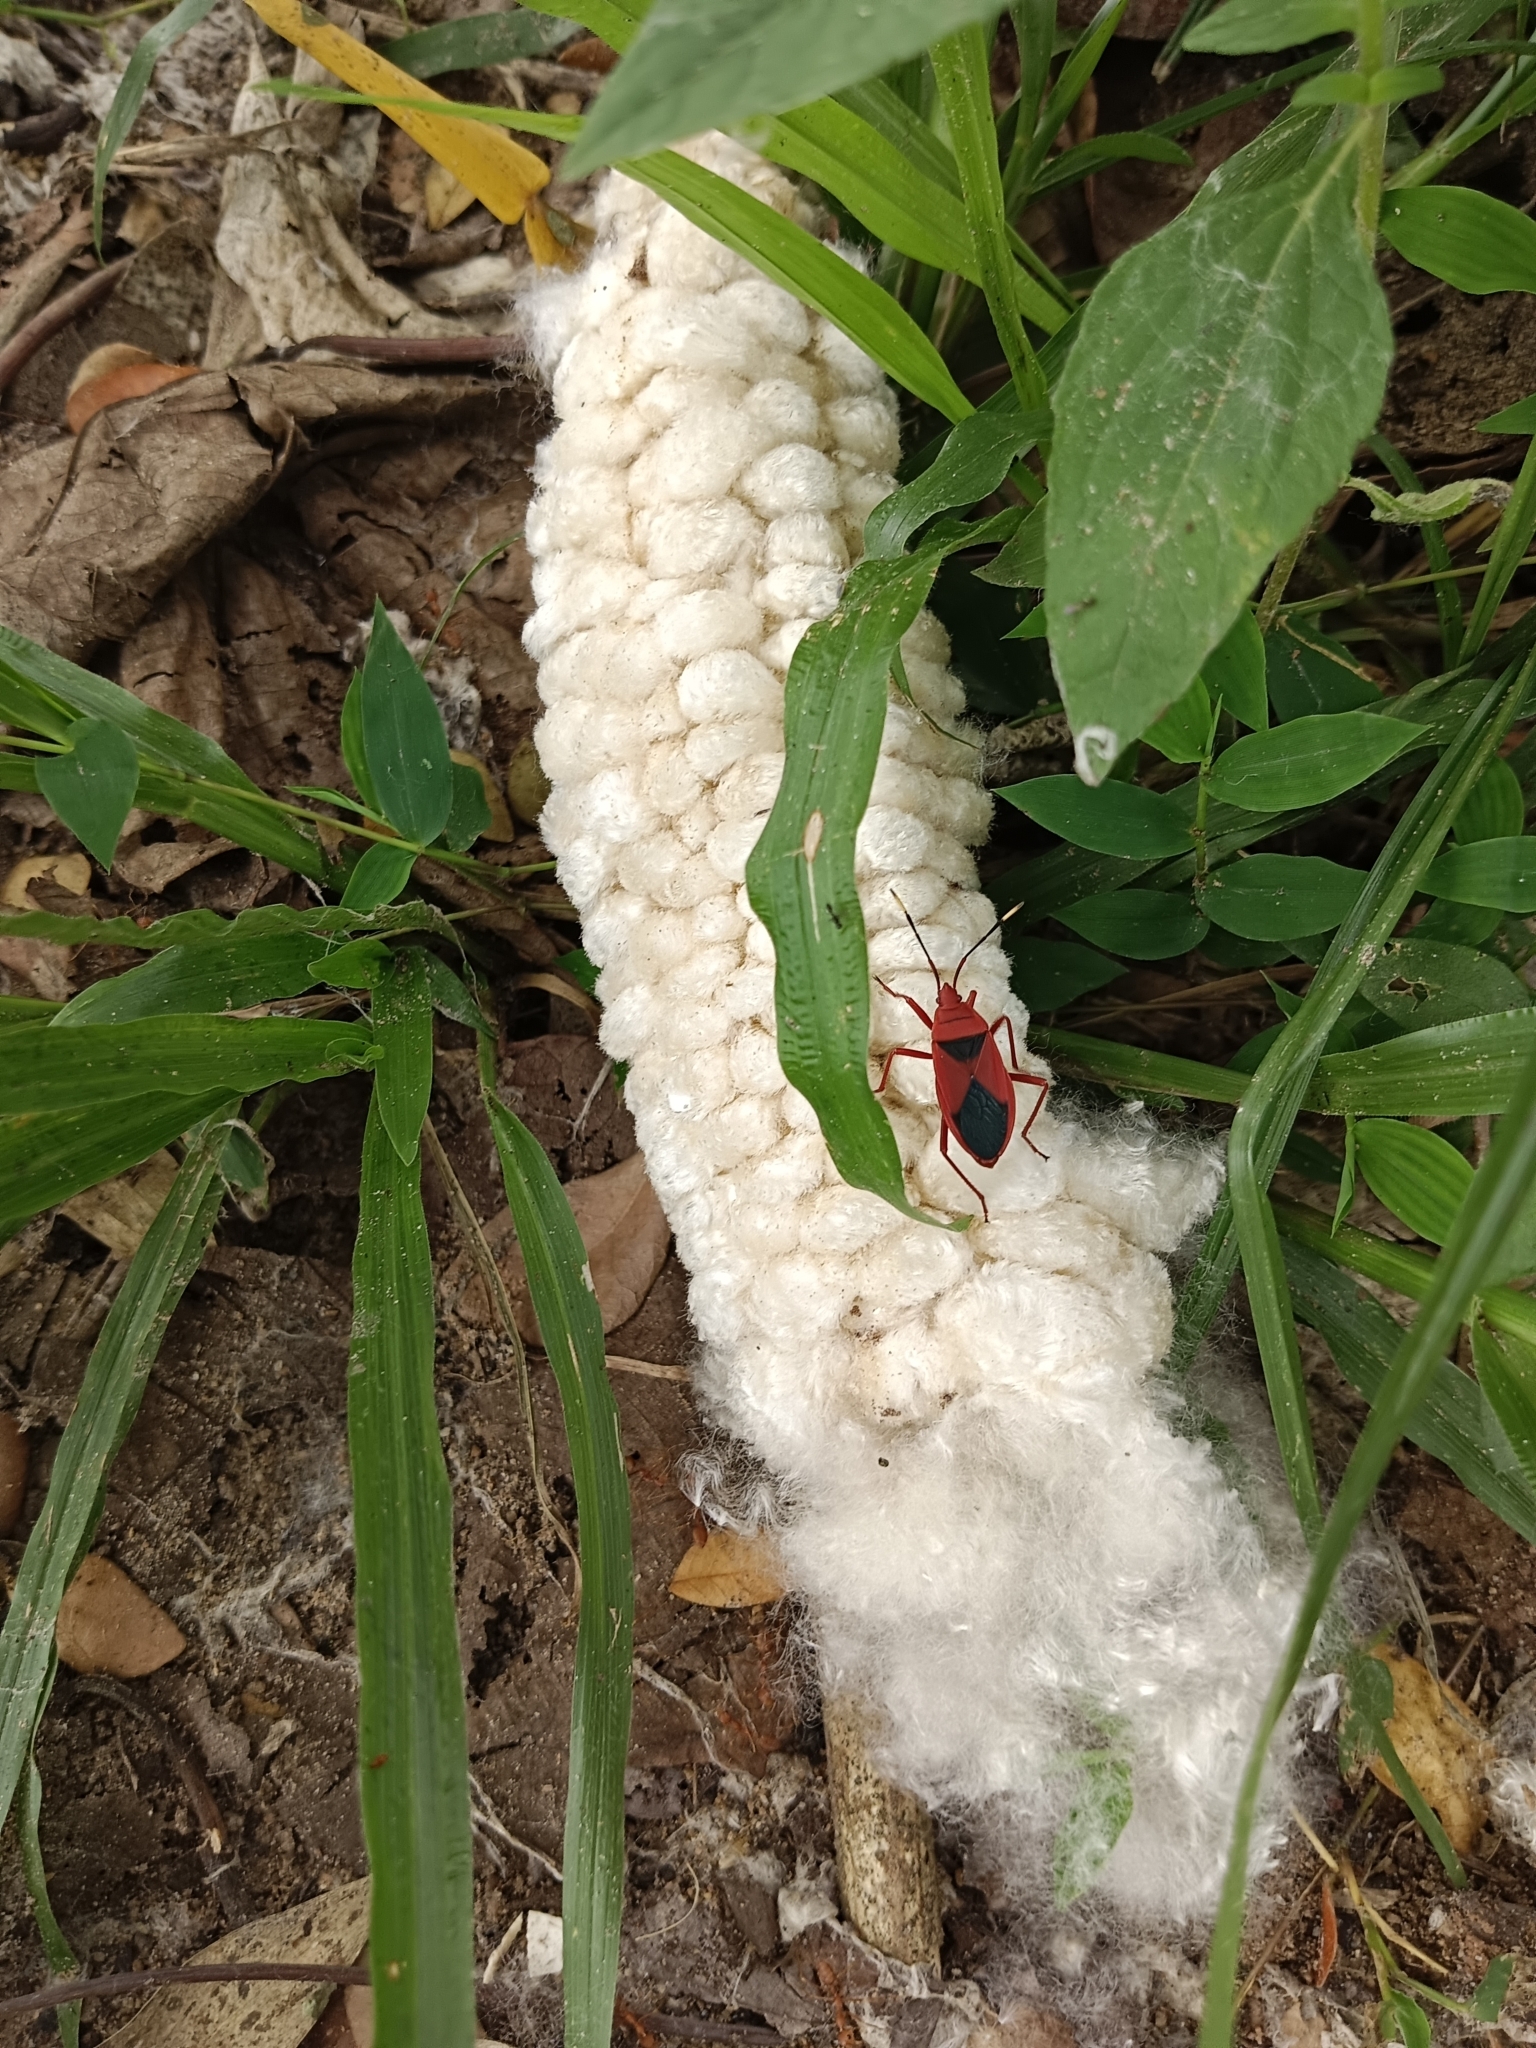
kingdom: Animalia
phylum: Arthropoda
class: Insecta
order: Hemiptera
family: Pyrrhocoridae
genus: Probergrothius
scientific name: Probergrothius
